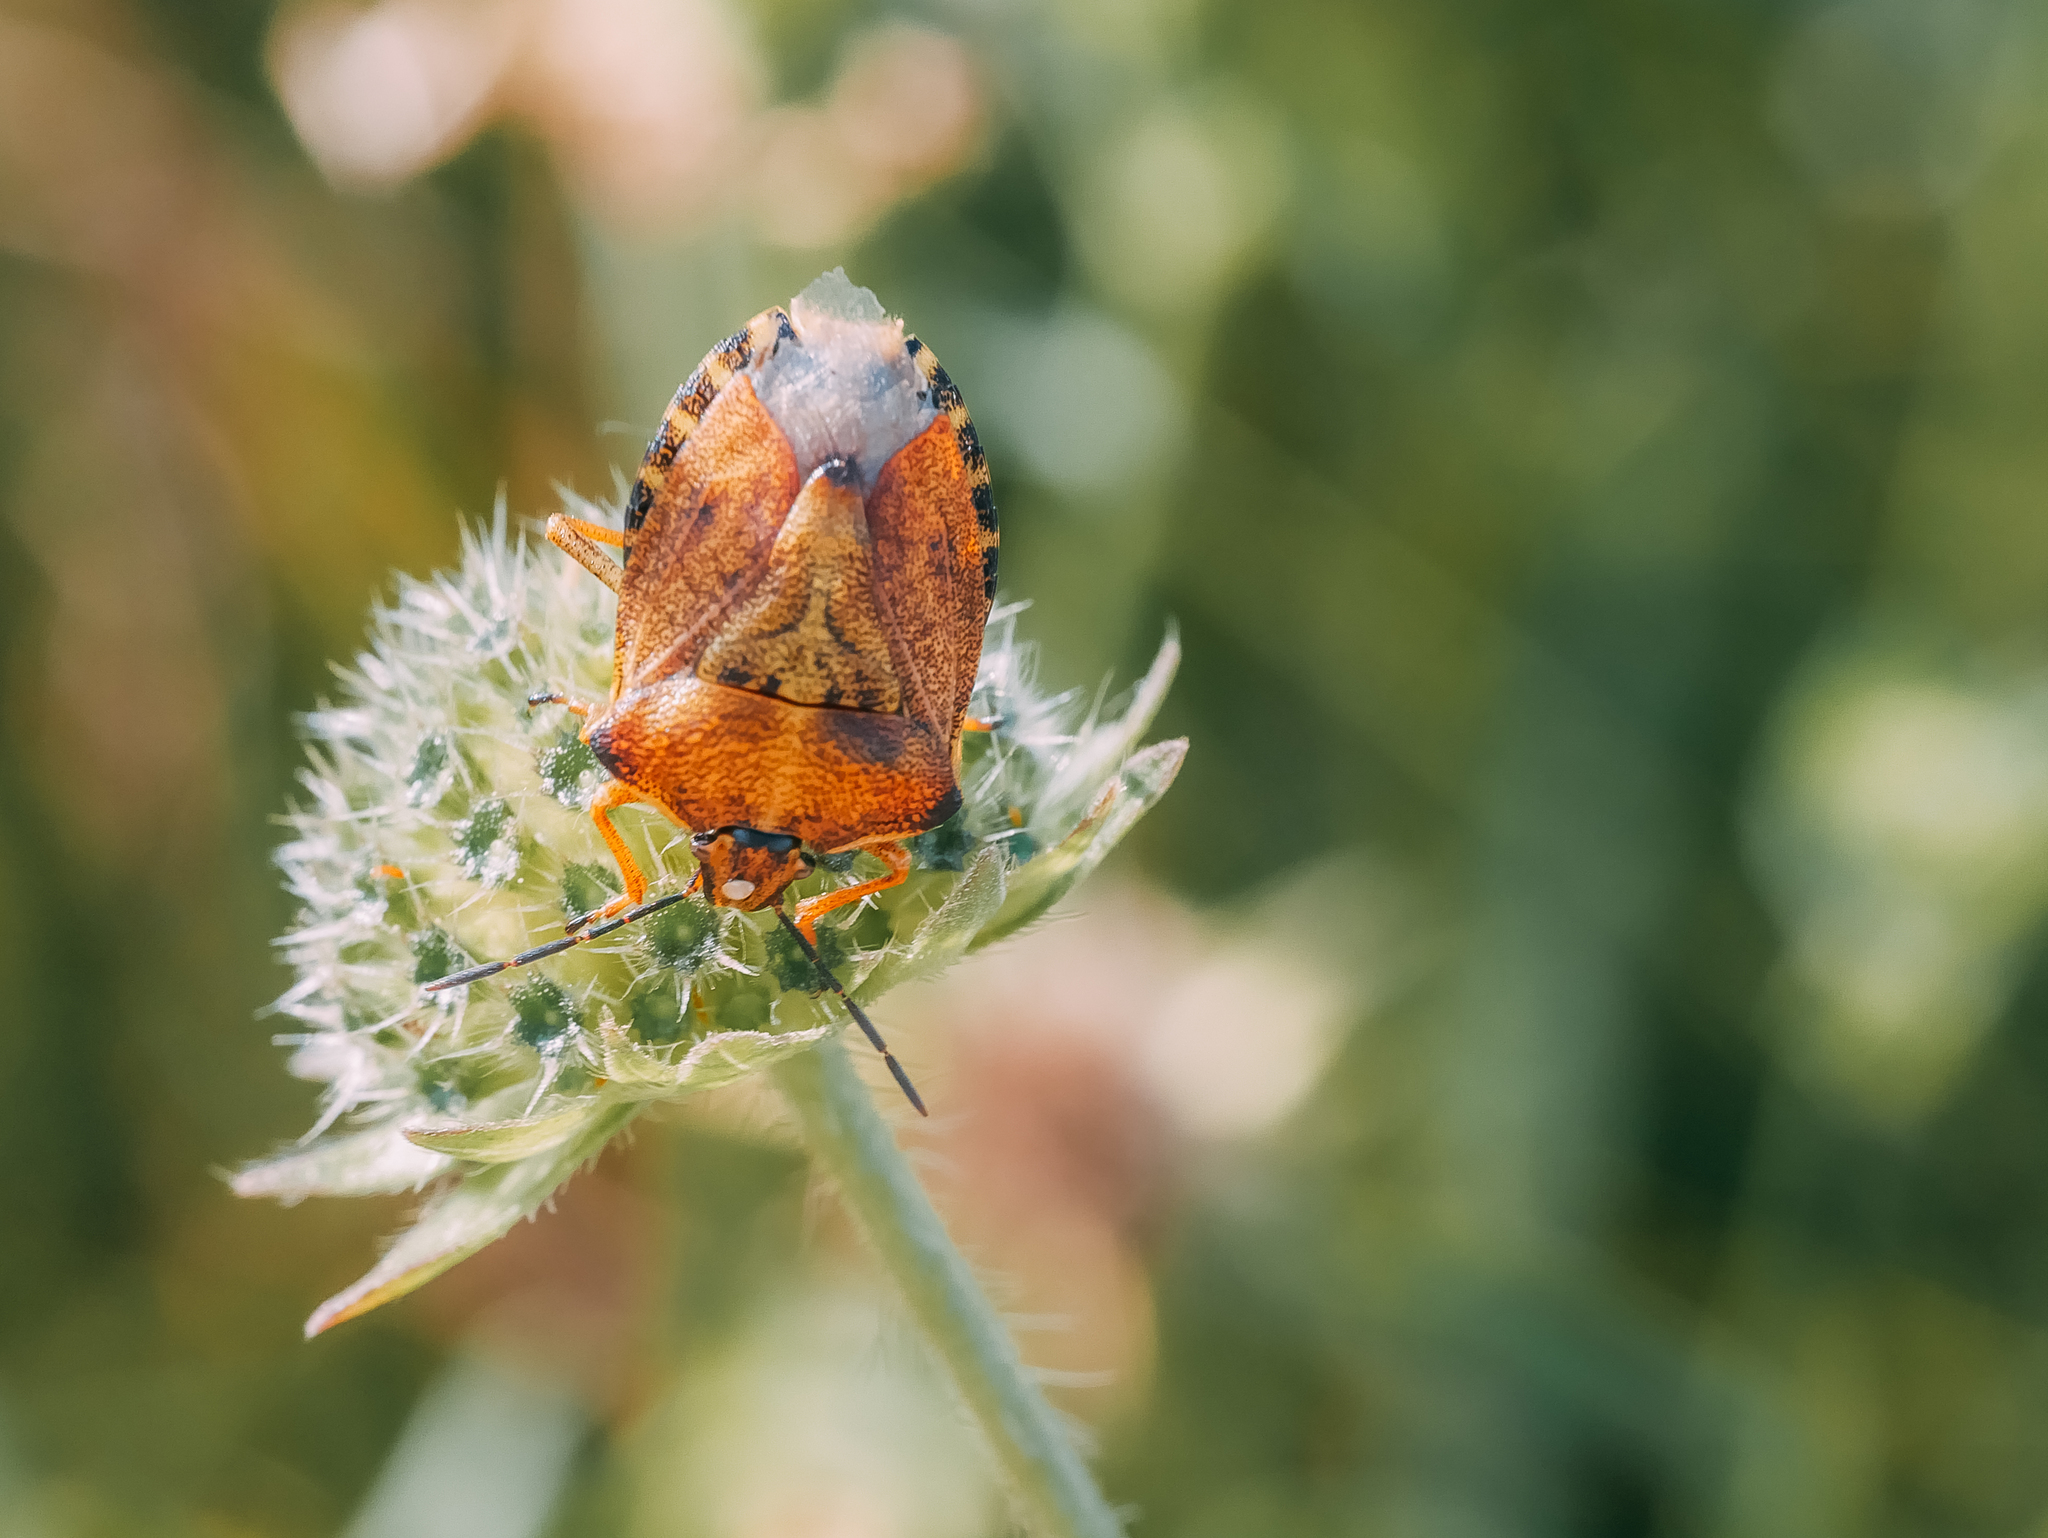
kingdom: Animalia
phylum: Arthropoda
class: Insecta
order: Hemiptera
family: Pentatomidae
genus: Carpocoris
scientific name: Carpocoris purpureipennis
